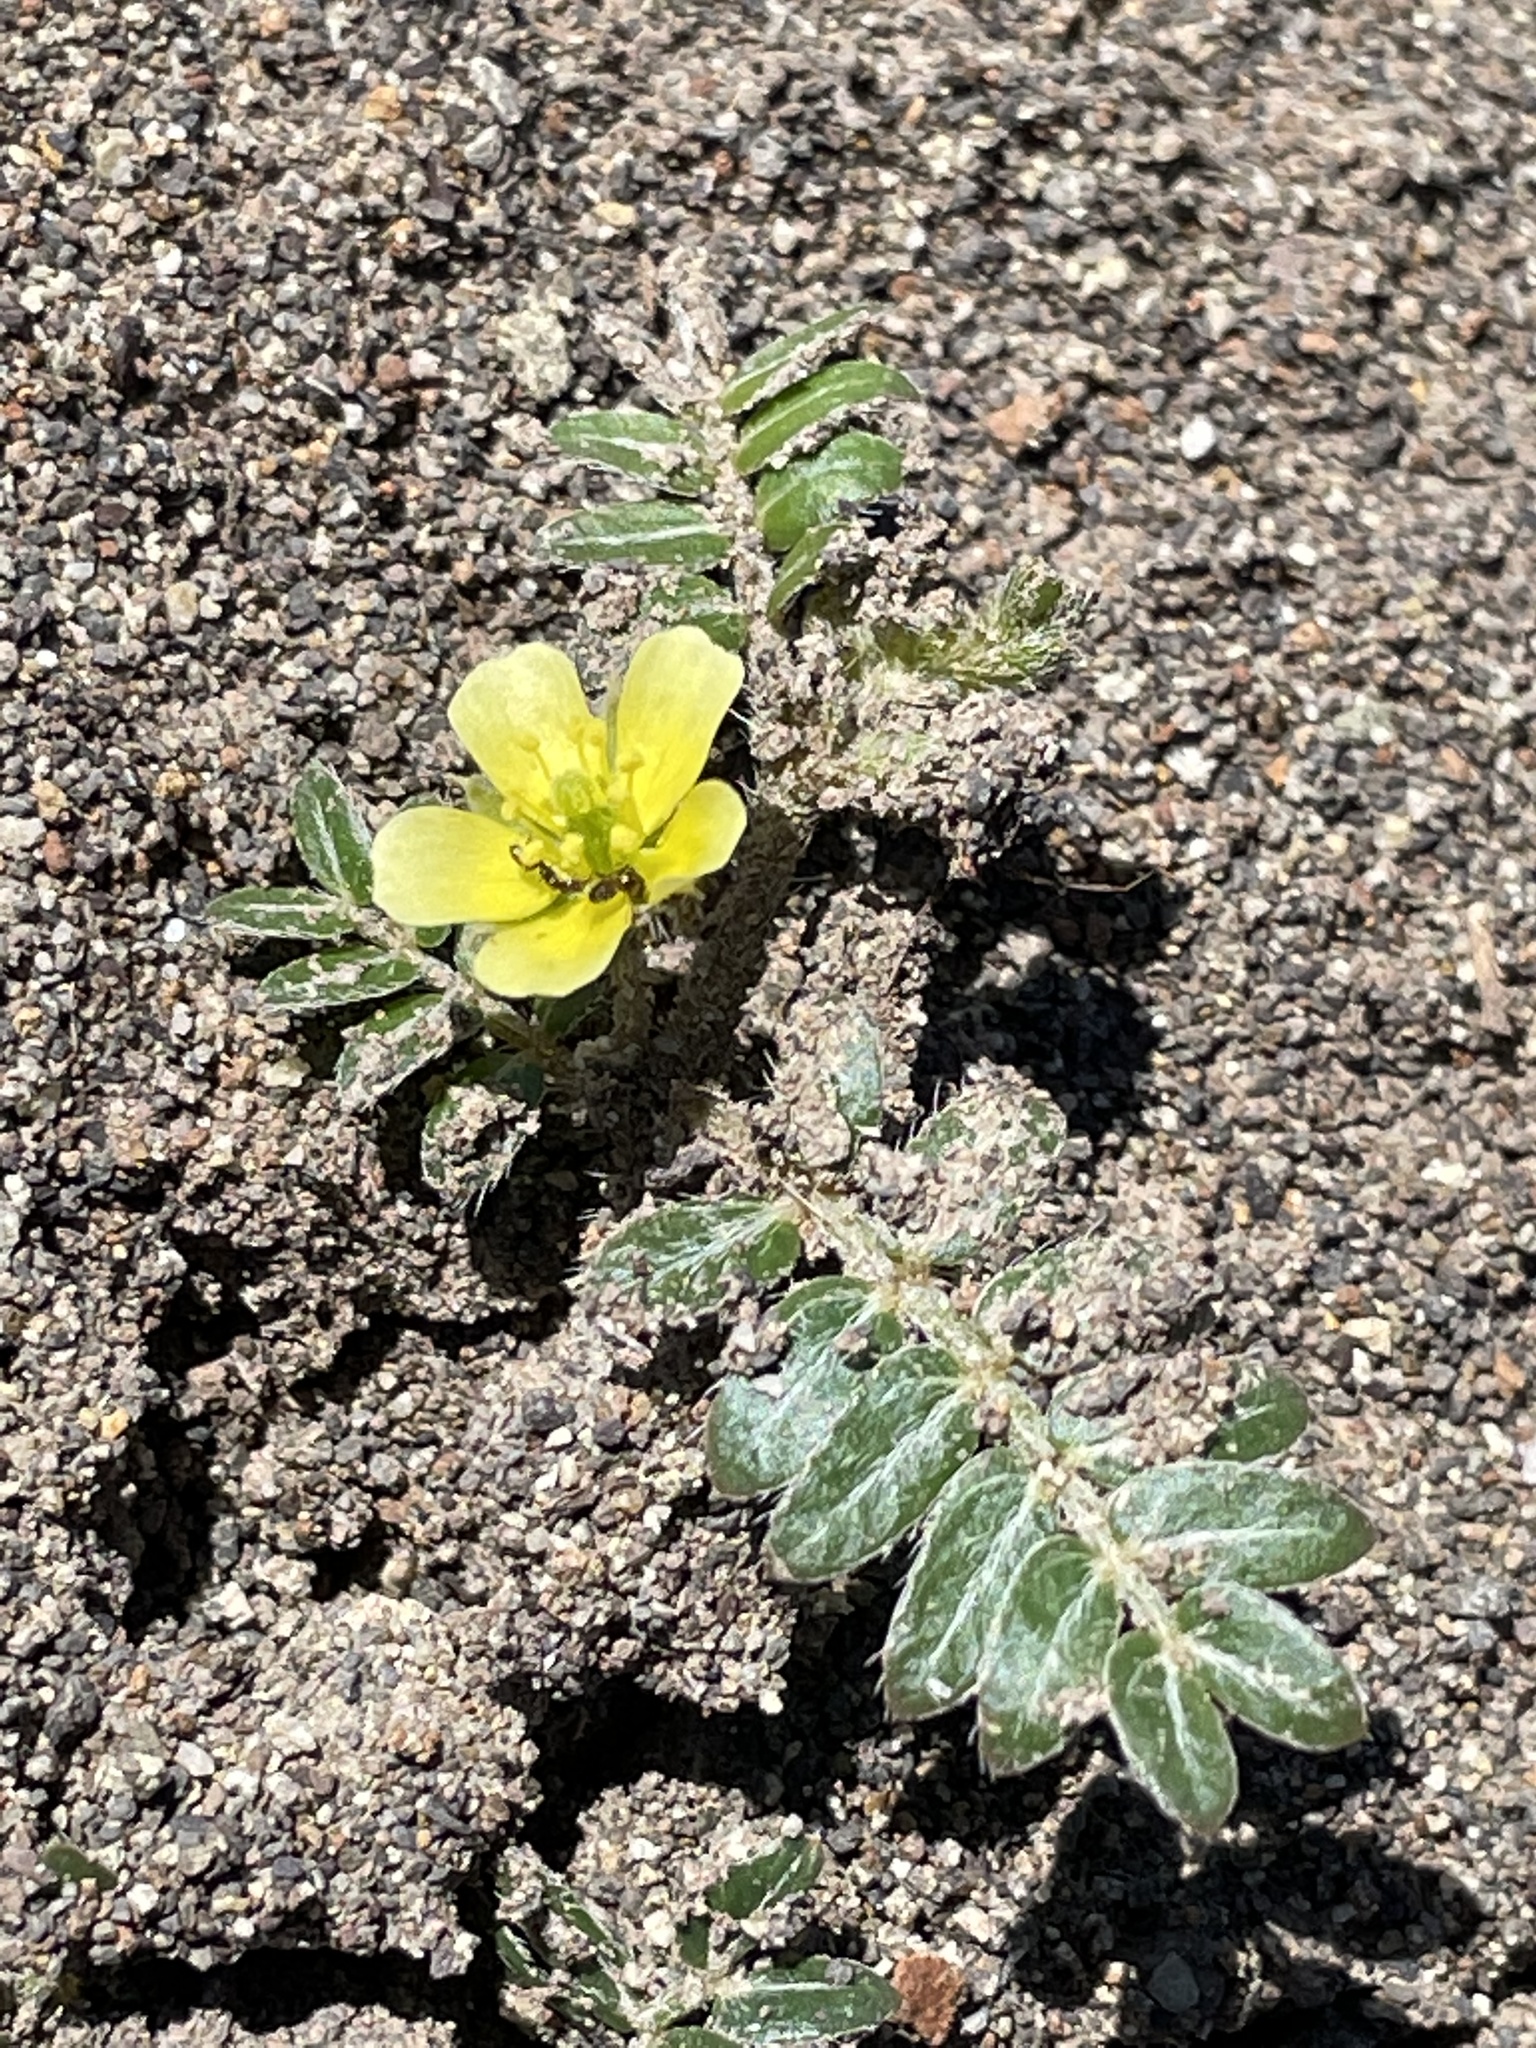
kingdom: Plantae
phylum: Tracheophyta
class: Magnoliopsida
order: Zygophyllales
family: Zygophyllaceae
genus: Tribulus
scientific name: Tribulus terrestris
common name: Puncturevine
